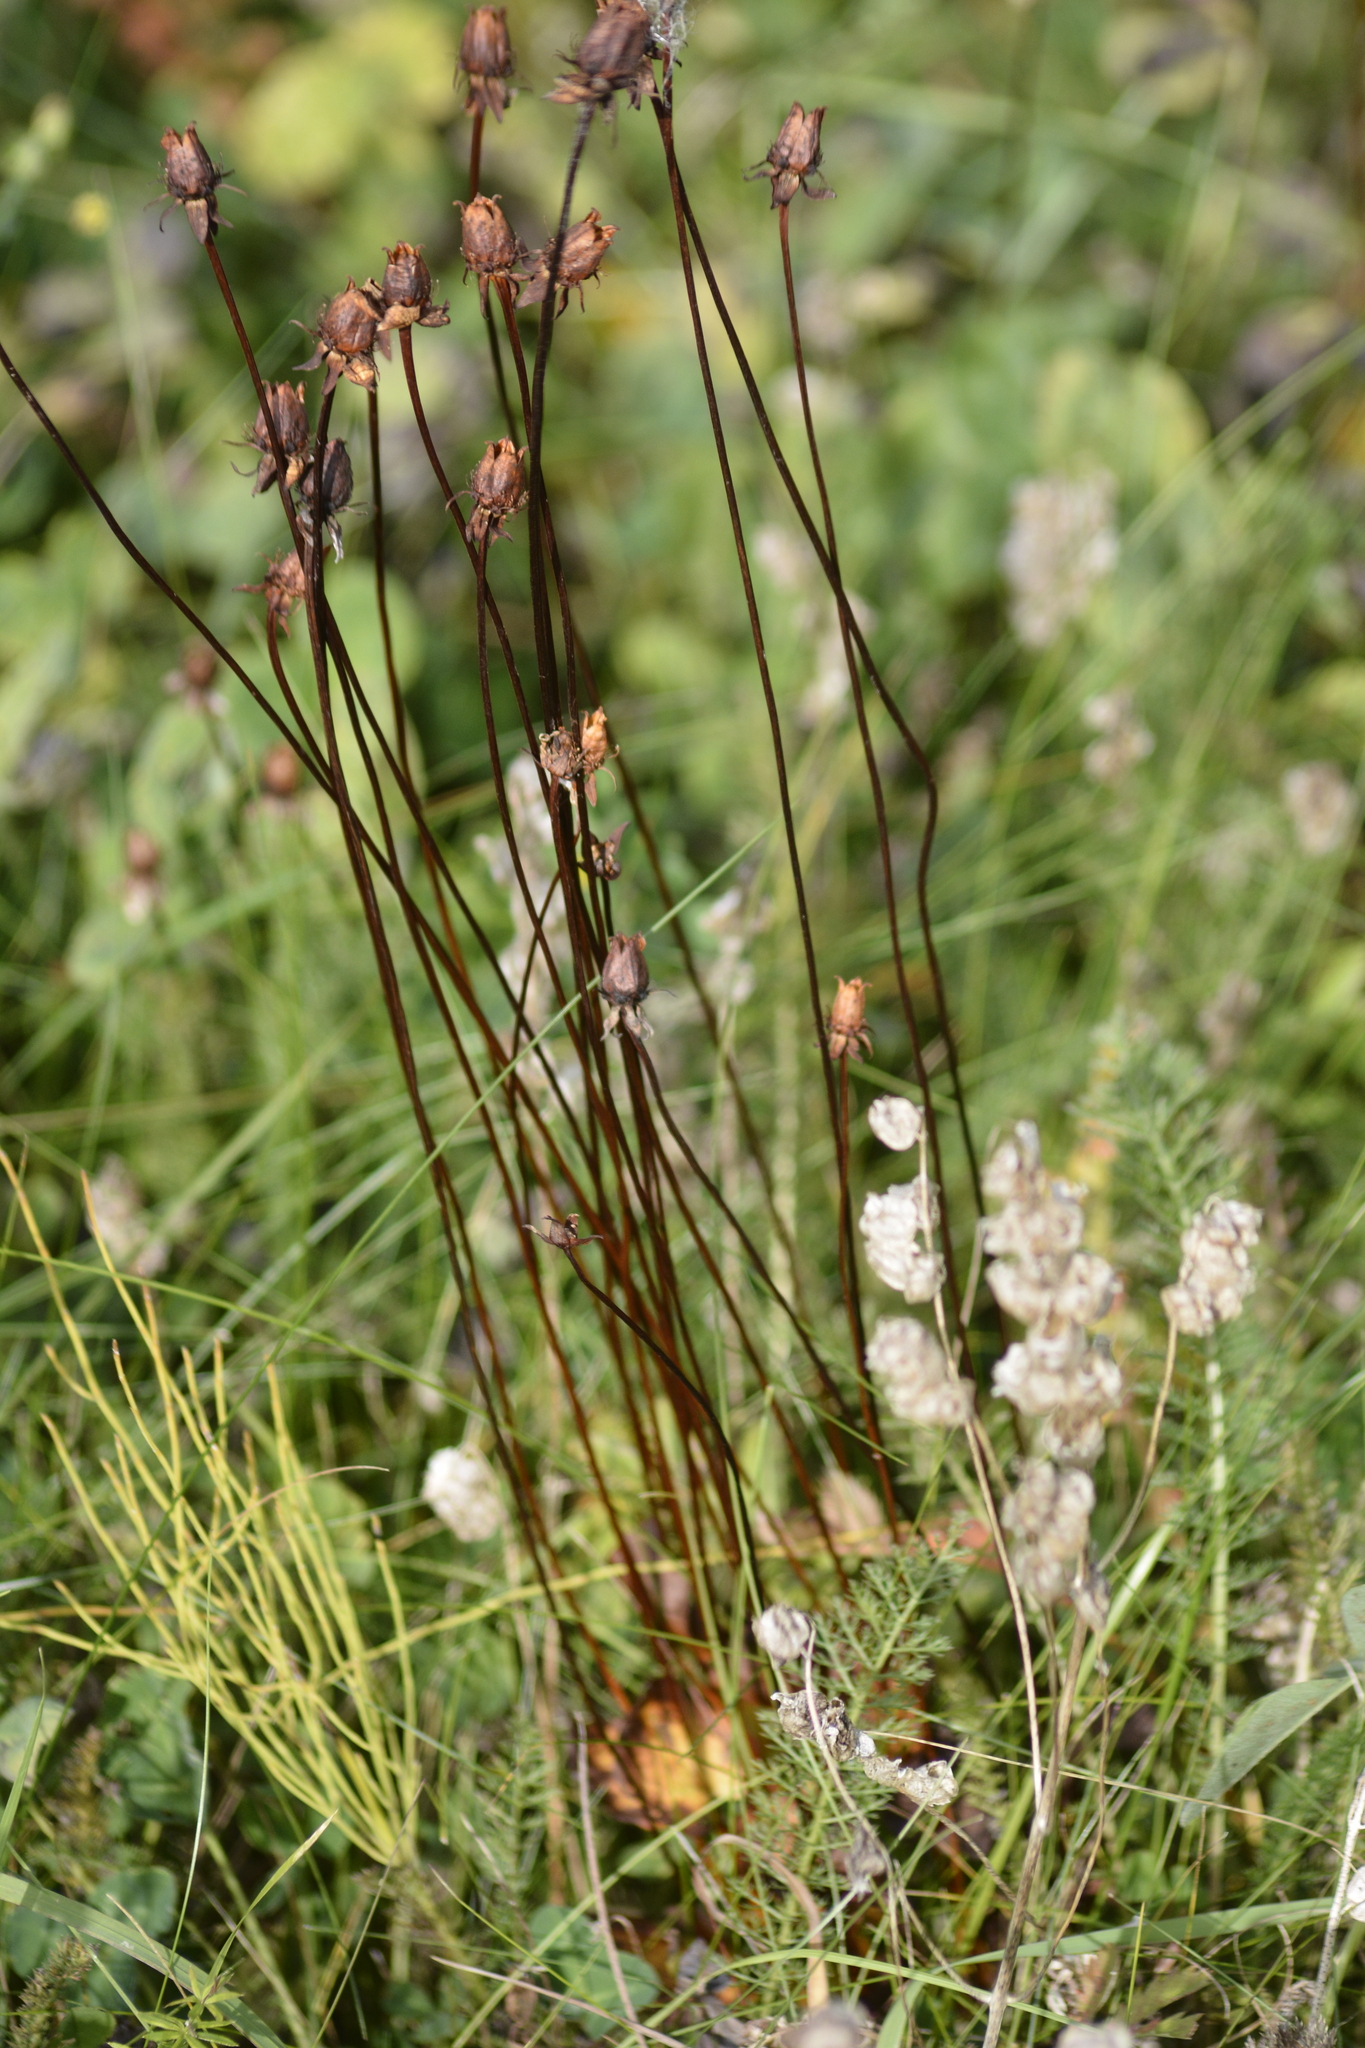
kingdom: Plantae
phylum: Tracheophyta
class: Magnoliopsida
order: Celastrales
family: Parnassiaceae
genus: Parnassia
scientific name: Parnassia palustris
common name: Grass-of-parnassus
